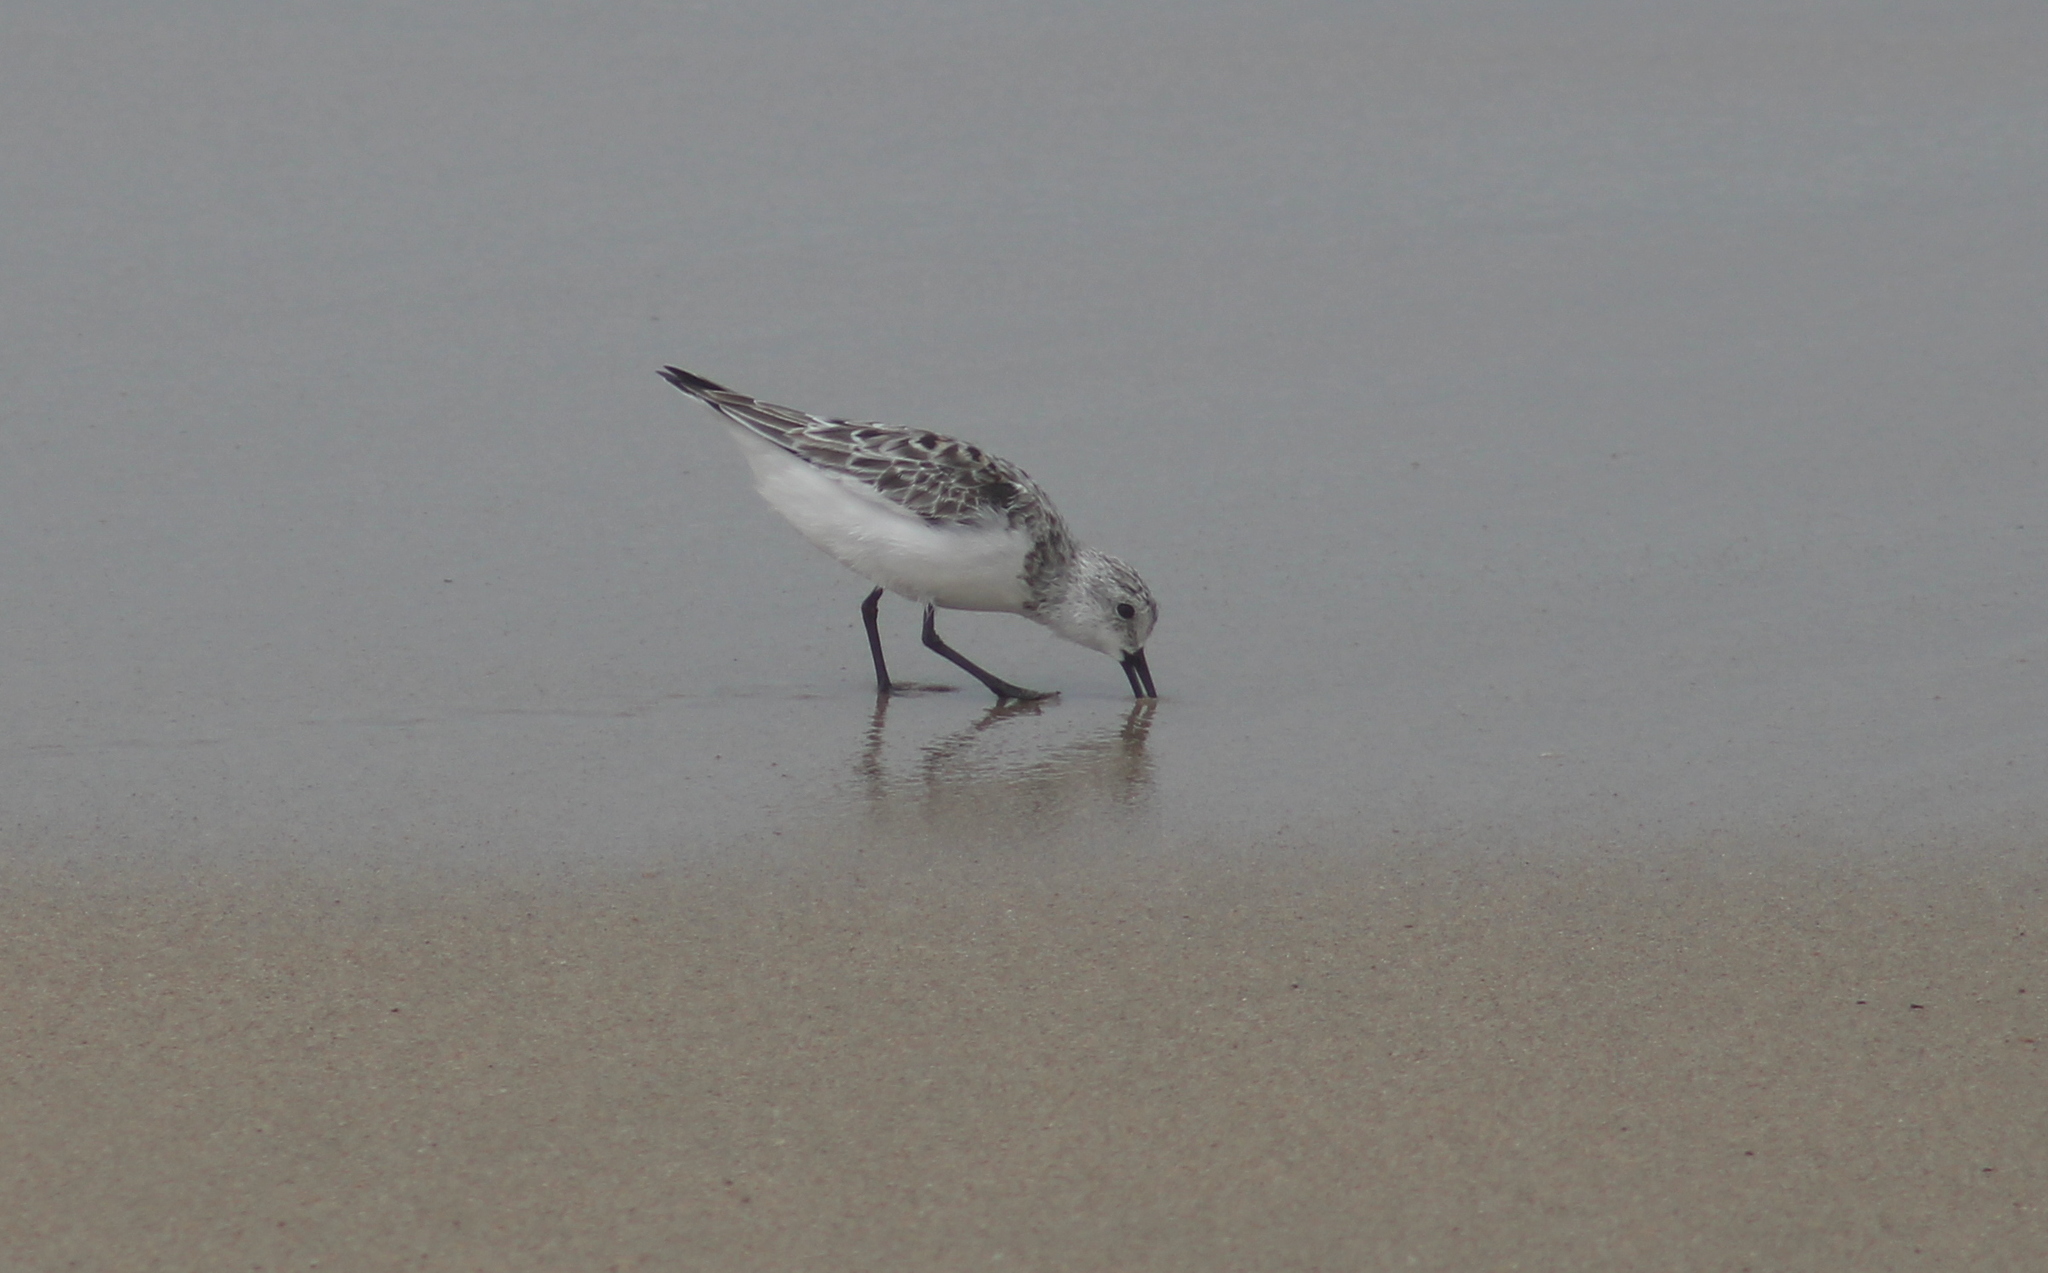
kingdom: Animalia
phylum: Chordata
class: Aves
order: Charadriiformes
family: Scolopacidae
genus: Calidris
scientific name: Calidris alba
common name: Sanderling
